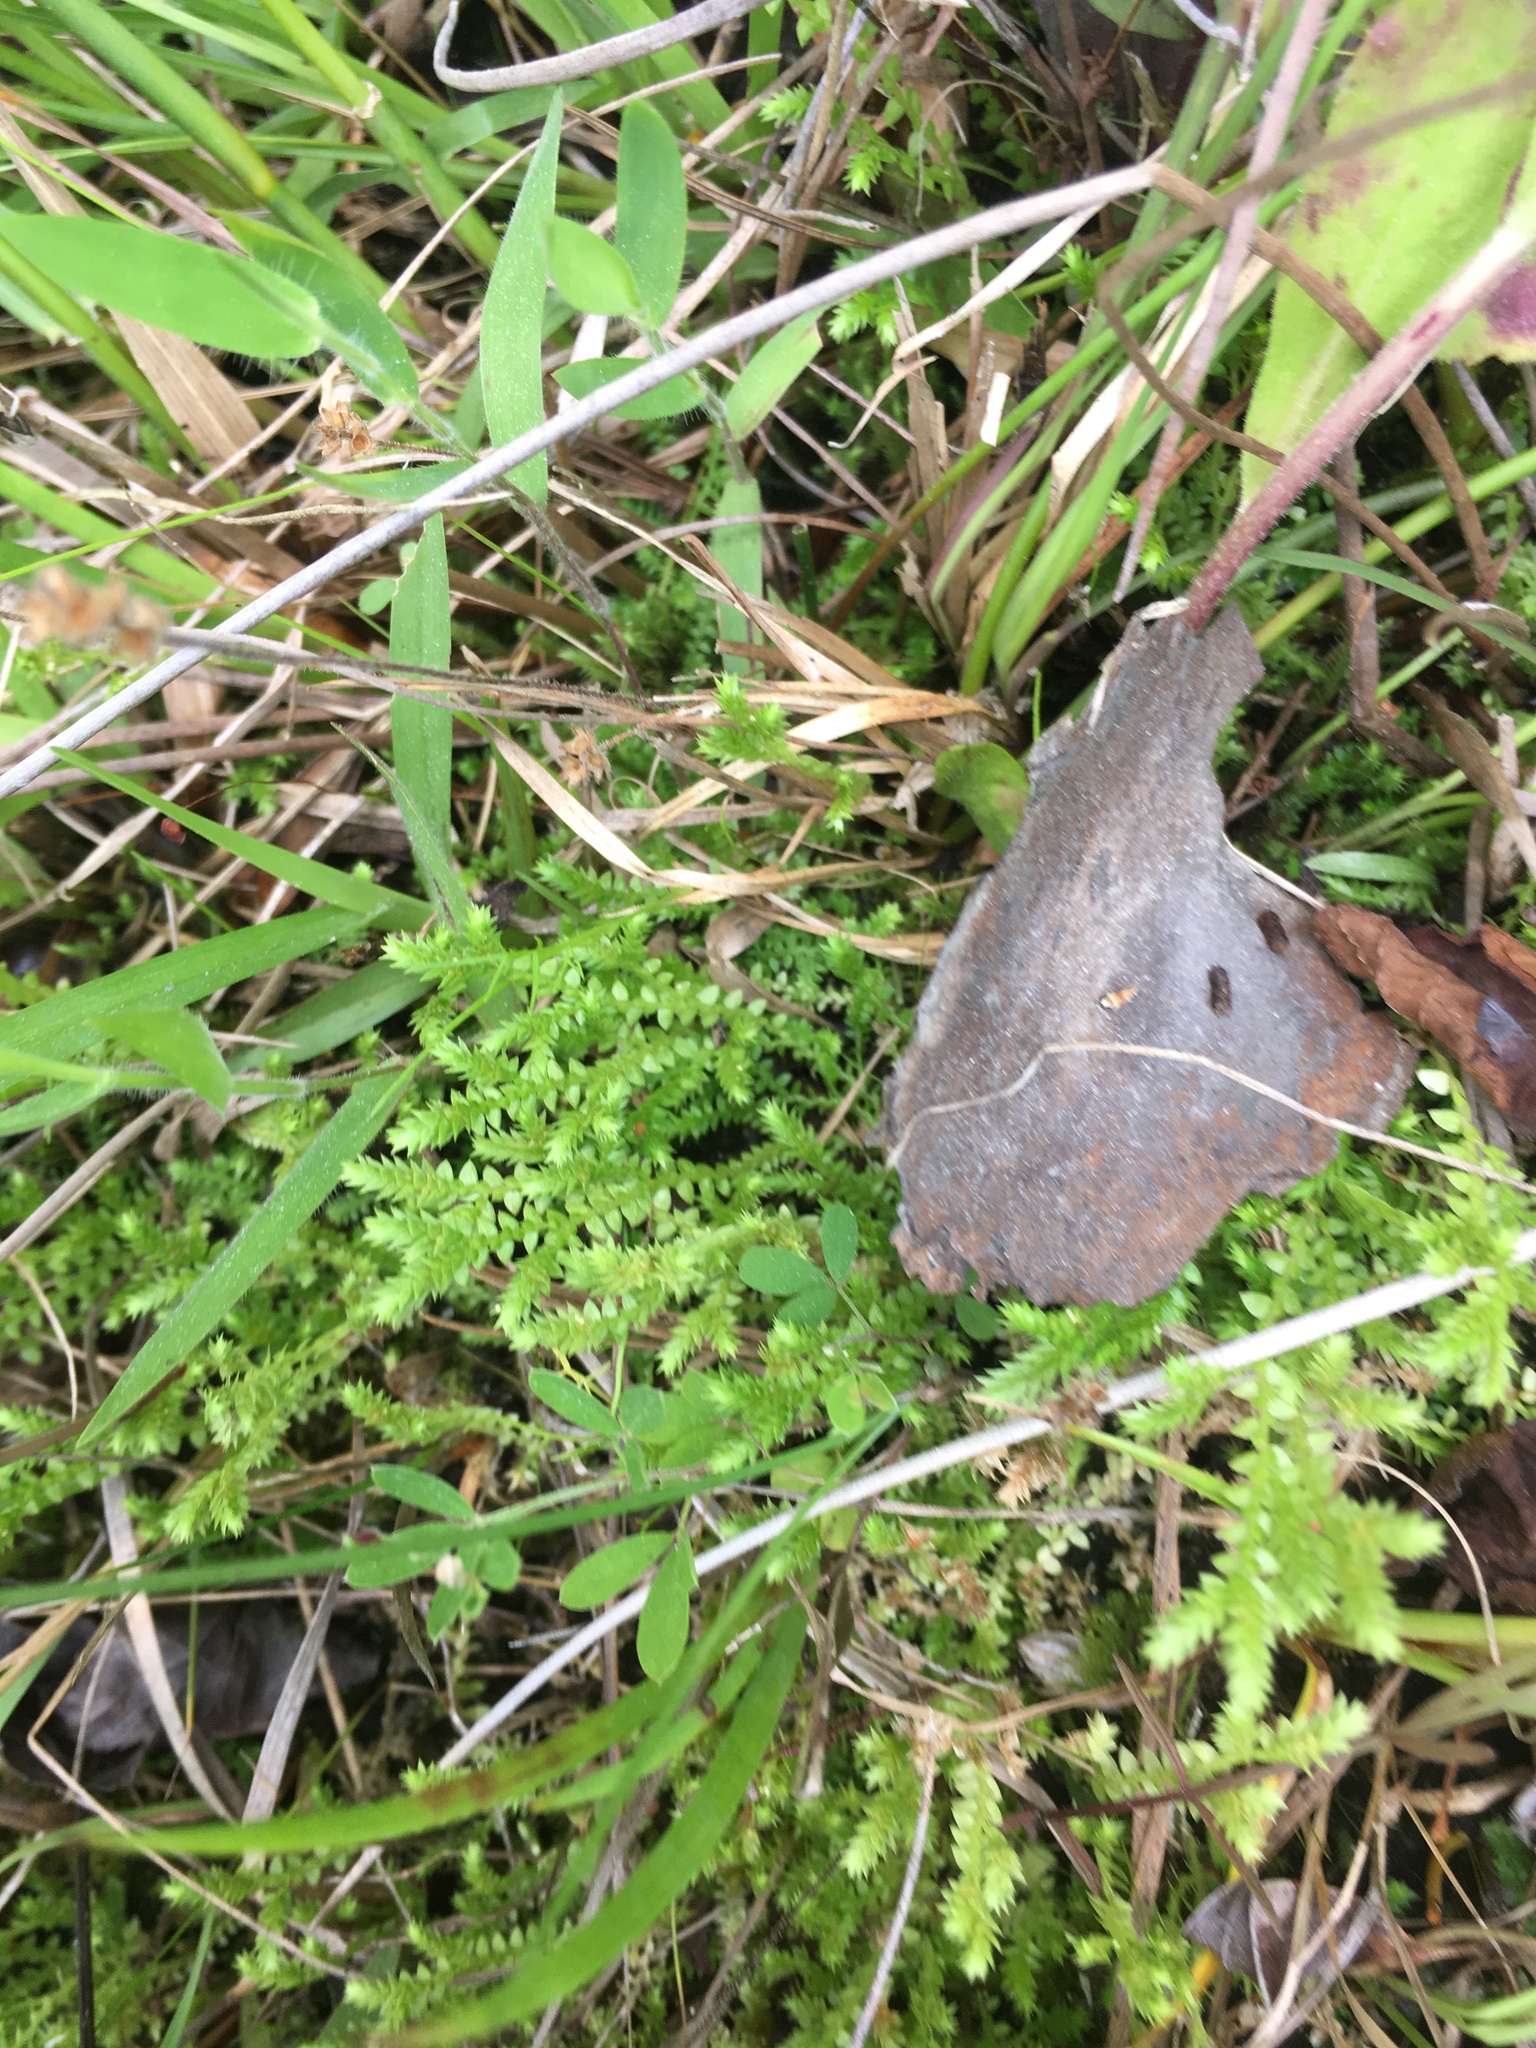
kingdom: Plantae
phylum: Tracheophyta
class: Lycopodiopsida
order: Selaginellales
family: Selaginellaceae
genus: Selaginella
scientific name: Selaginella apoda
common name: Creeping spikemoss
